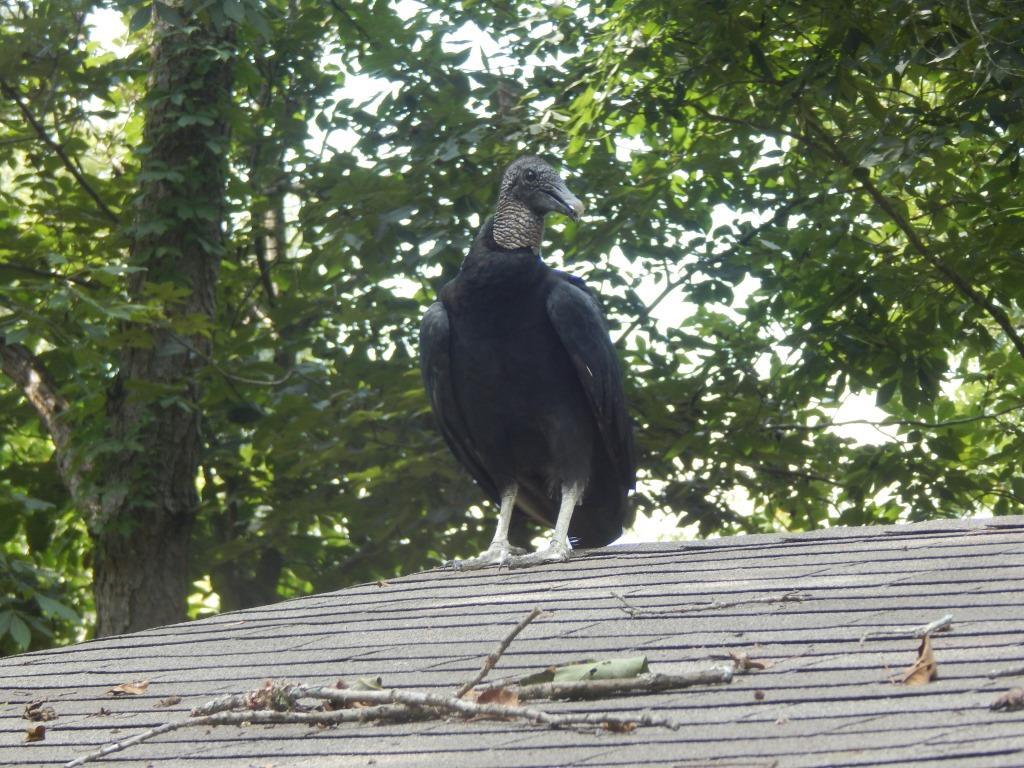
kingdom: Animalia
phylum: Chordata
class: Aves
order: Accipitriformes
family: Cathartidae
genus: Coragyps
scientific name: Coragyps atratus
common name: Black vulture
